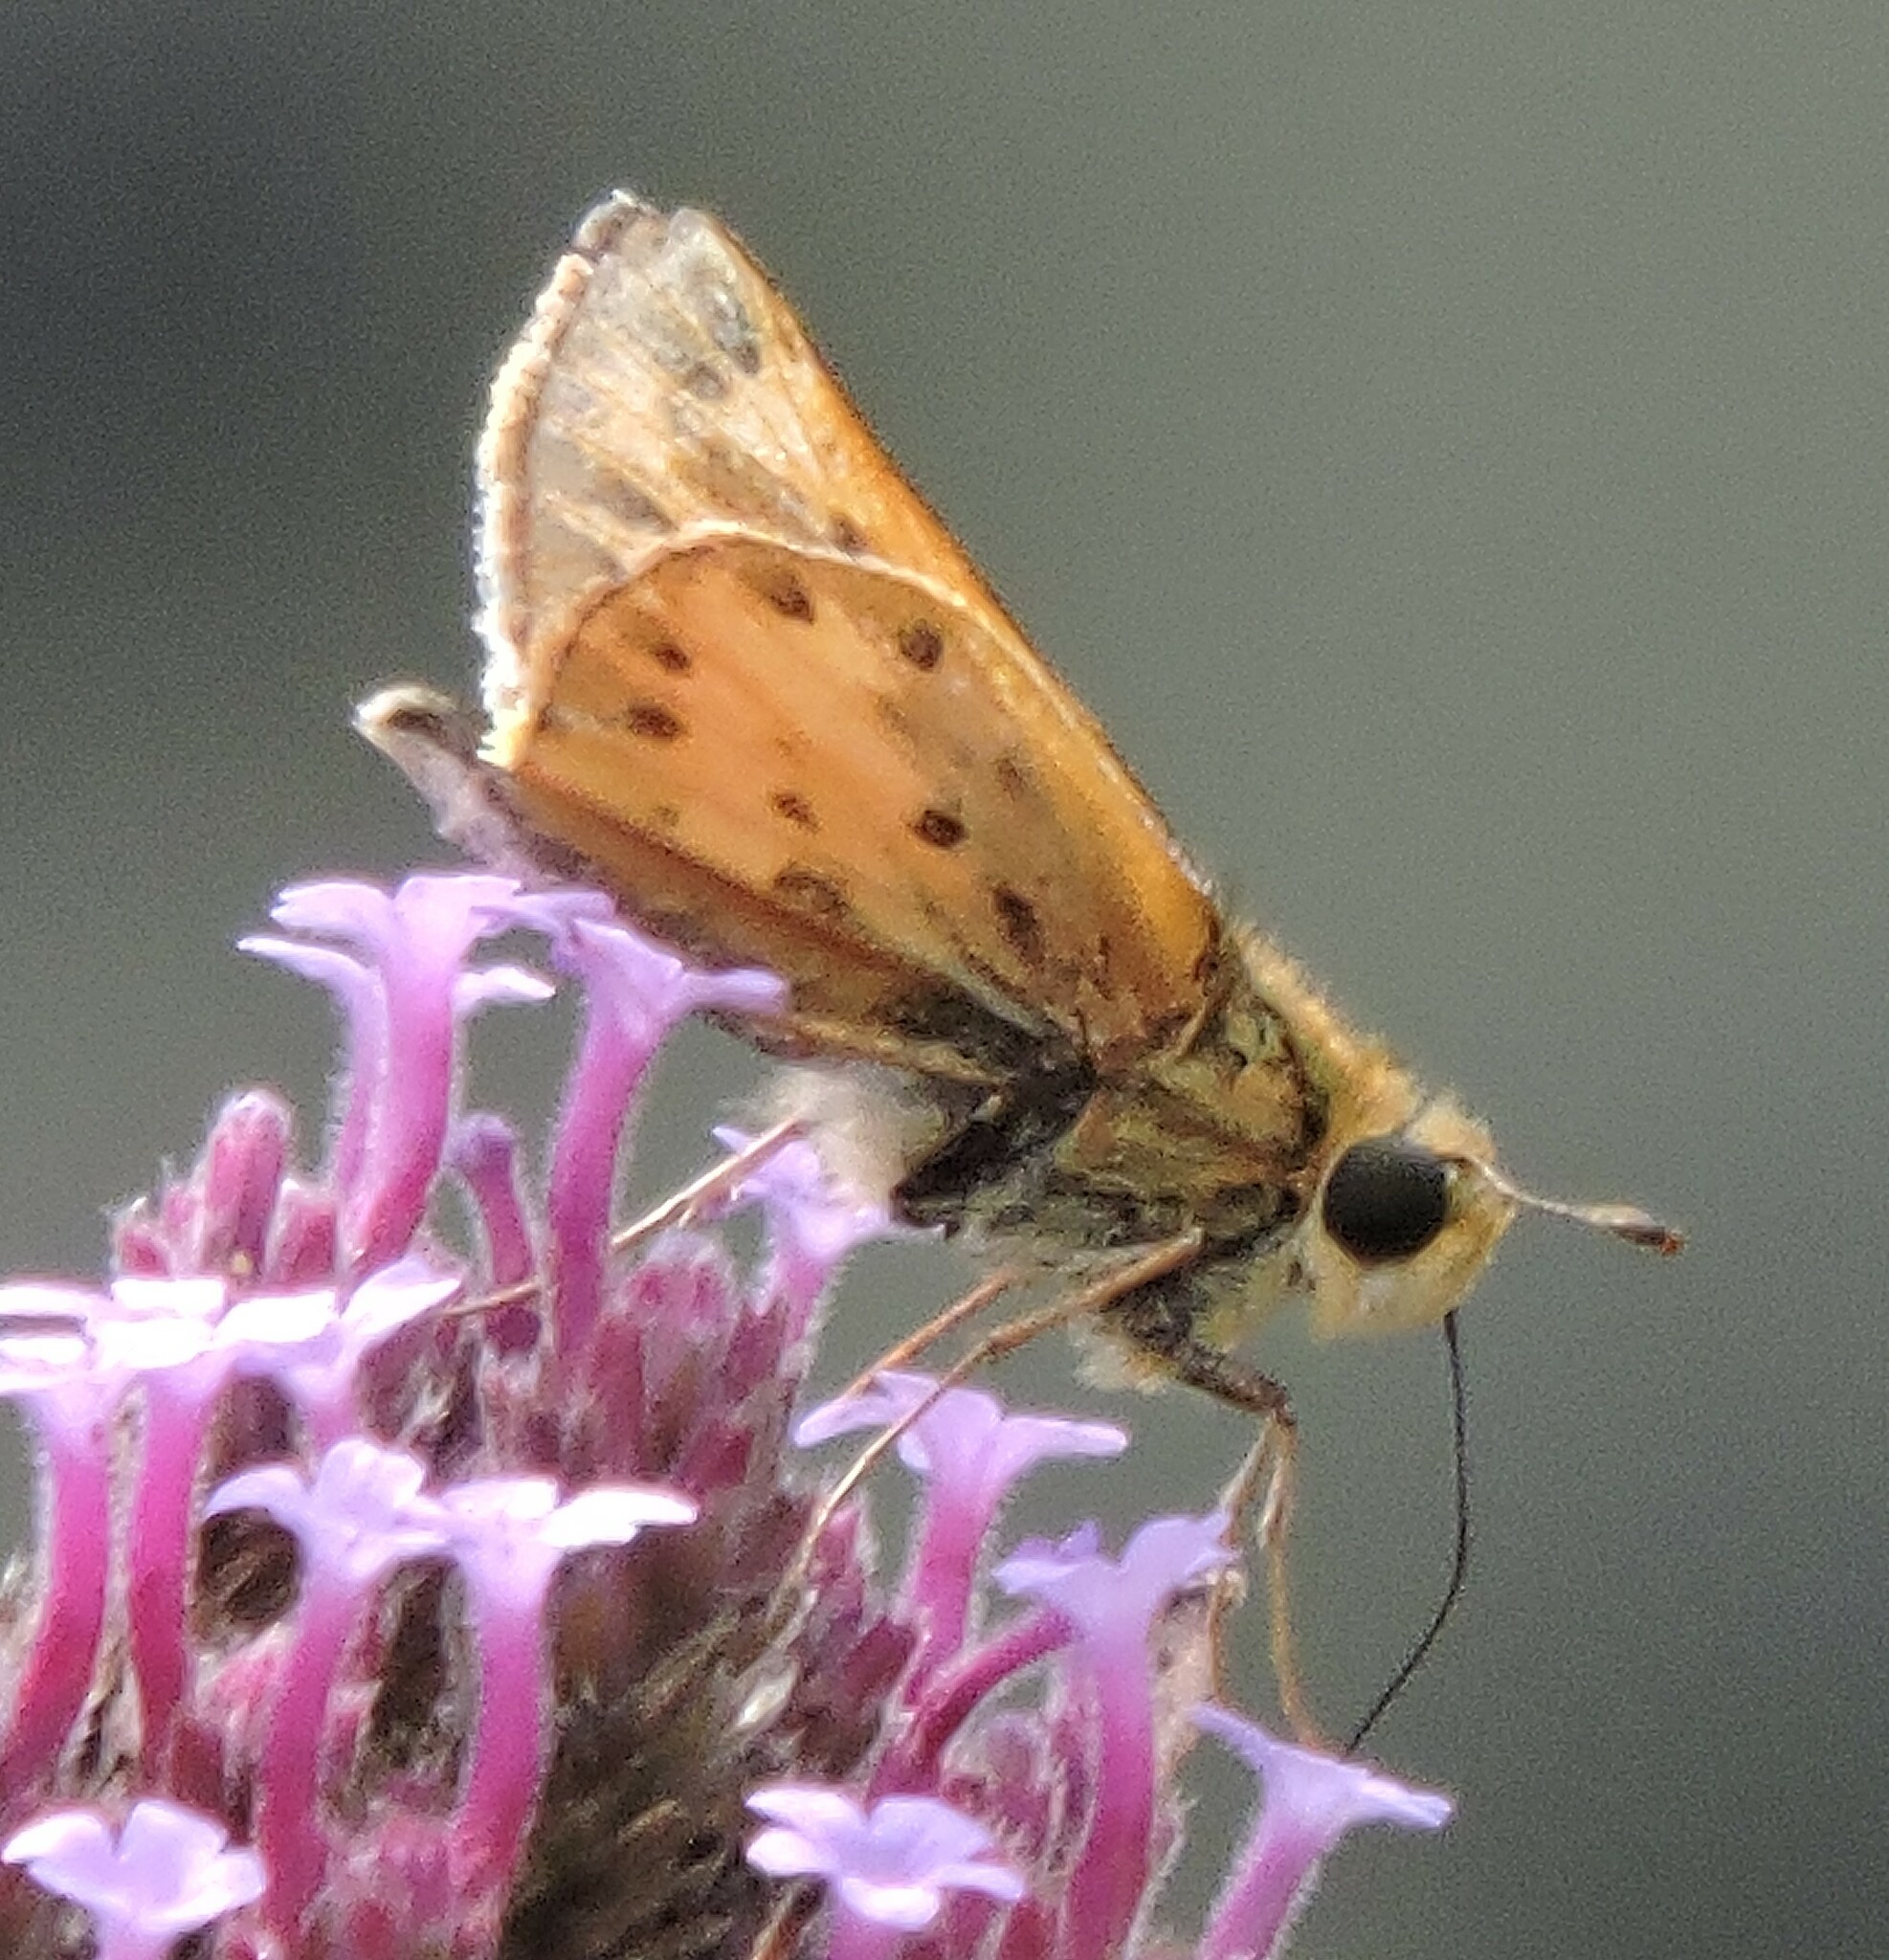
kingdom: Animalia
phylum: Arthropoda
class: Insecta
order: Lepidoptera
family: Hesperiidae
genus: Hylephila
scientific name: Hylephila phyleus
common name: Fiery skipper
